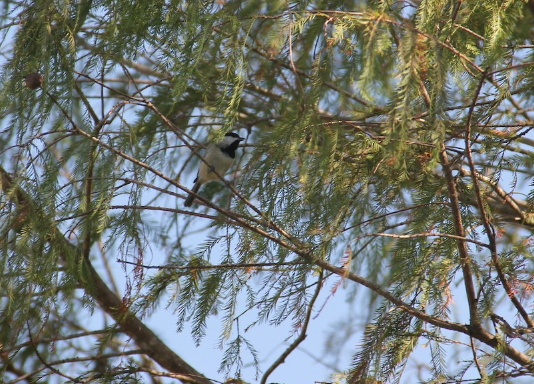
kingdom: Animalia
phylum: Chordata
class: Aves
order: Passeriformes
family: Paridae
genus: Poecile
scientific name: Poecile carolinensis
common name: Carolina chickadee
